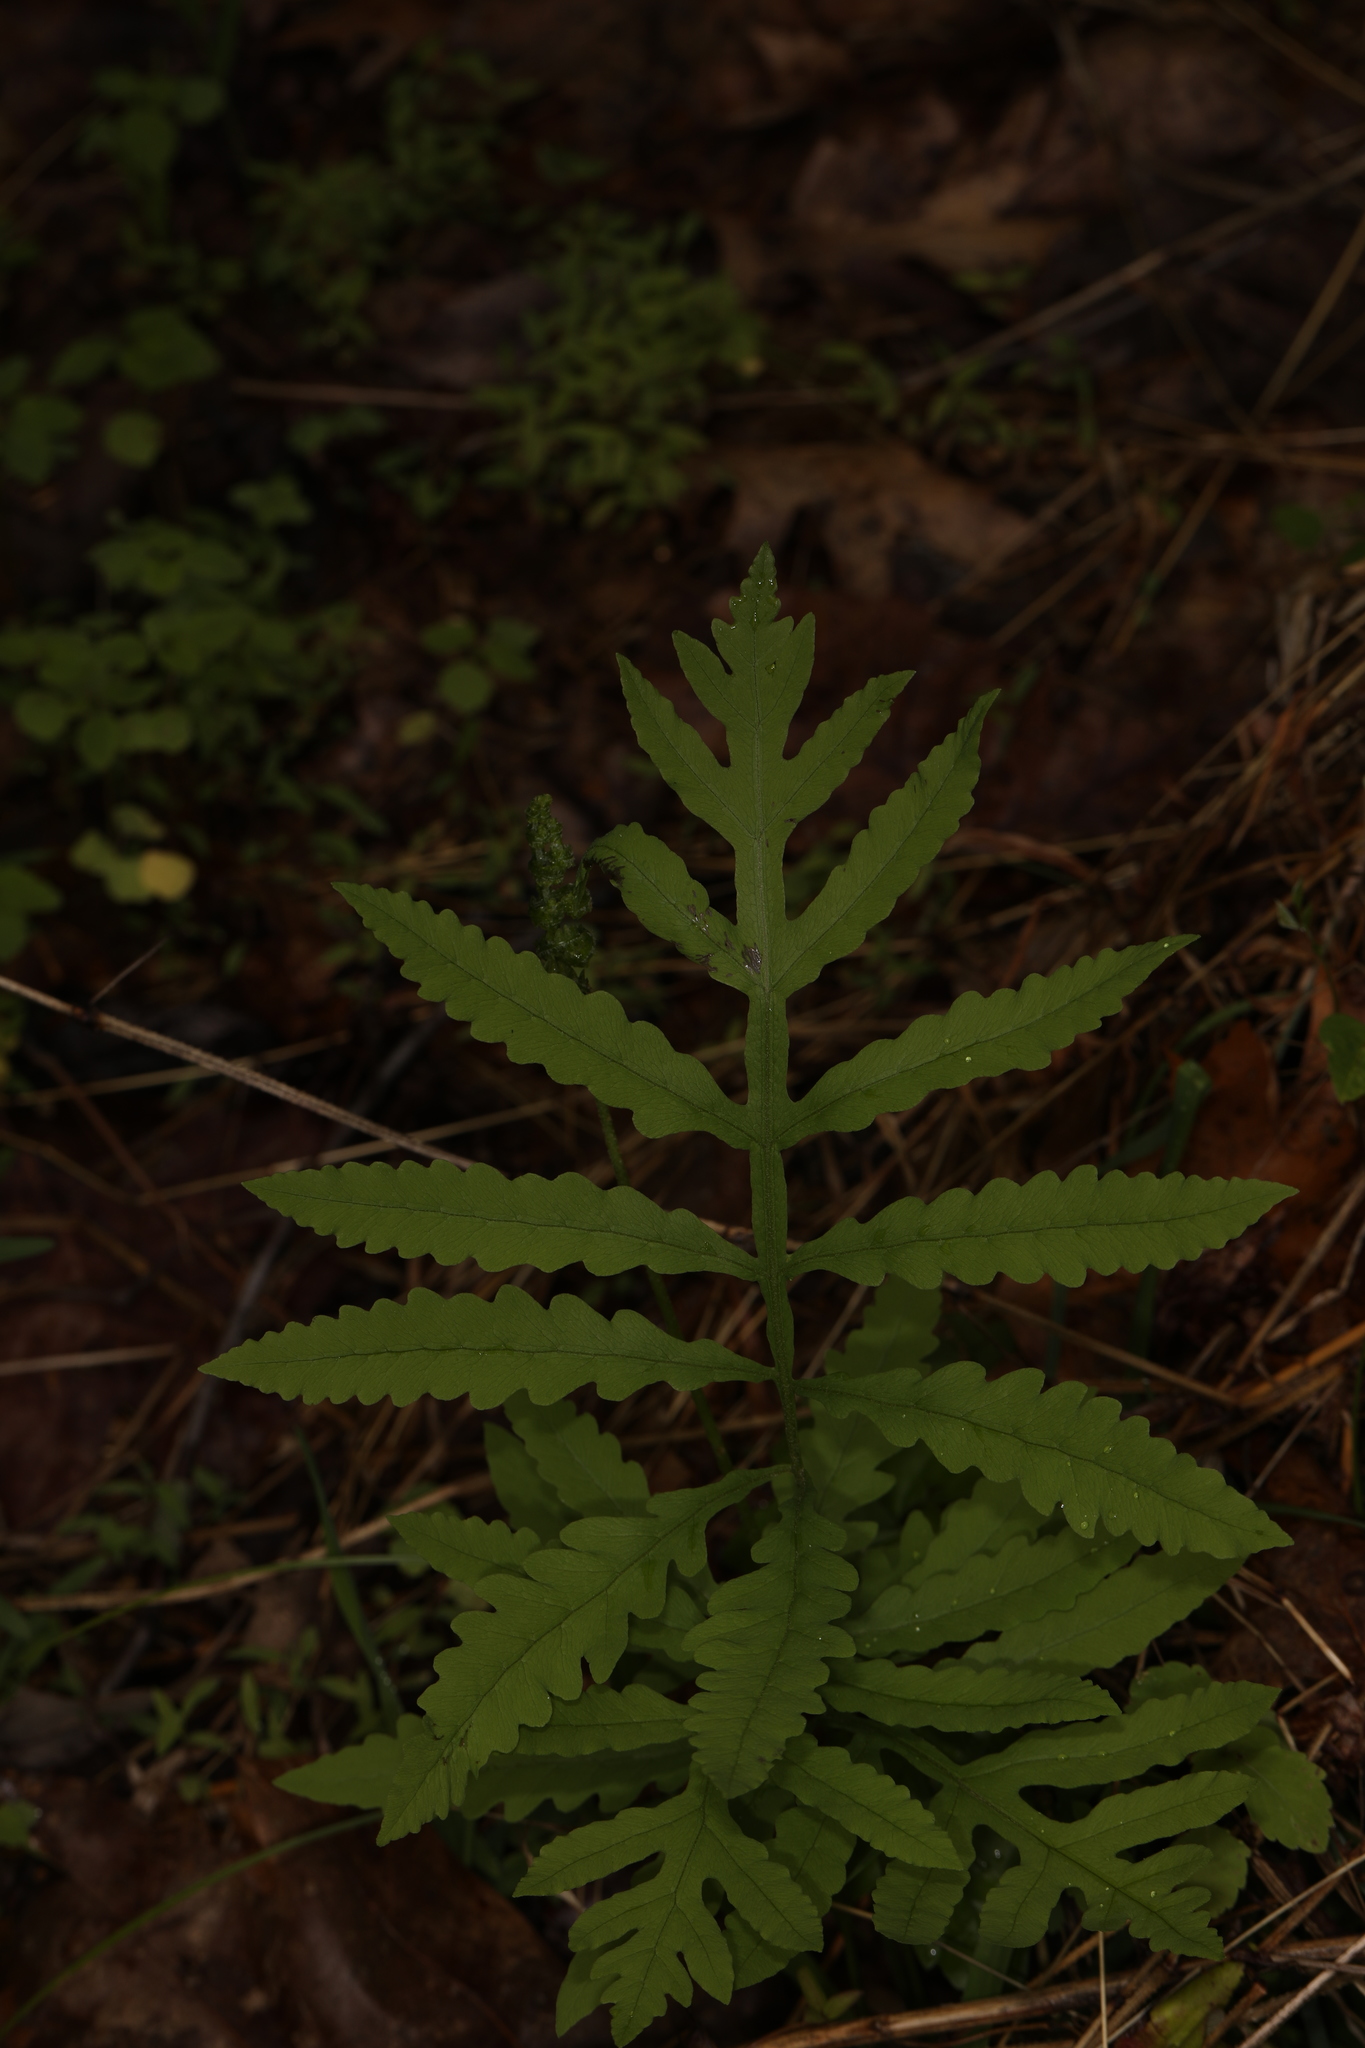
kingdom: Plantae
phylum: Tracheophyta
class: Polypodiopsida
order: Polypodiales
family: Onocleaceae
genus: Onoclea
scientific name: Onoclea sensibilis
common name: Sensitive fern
